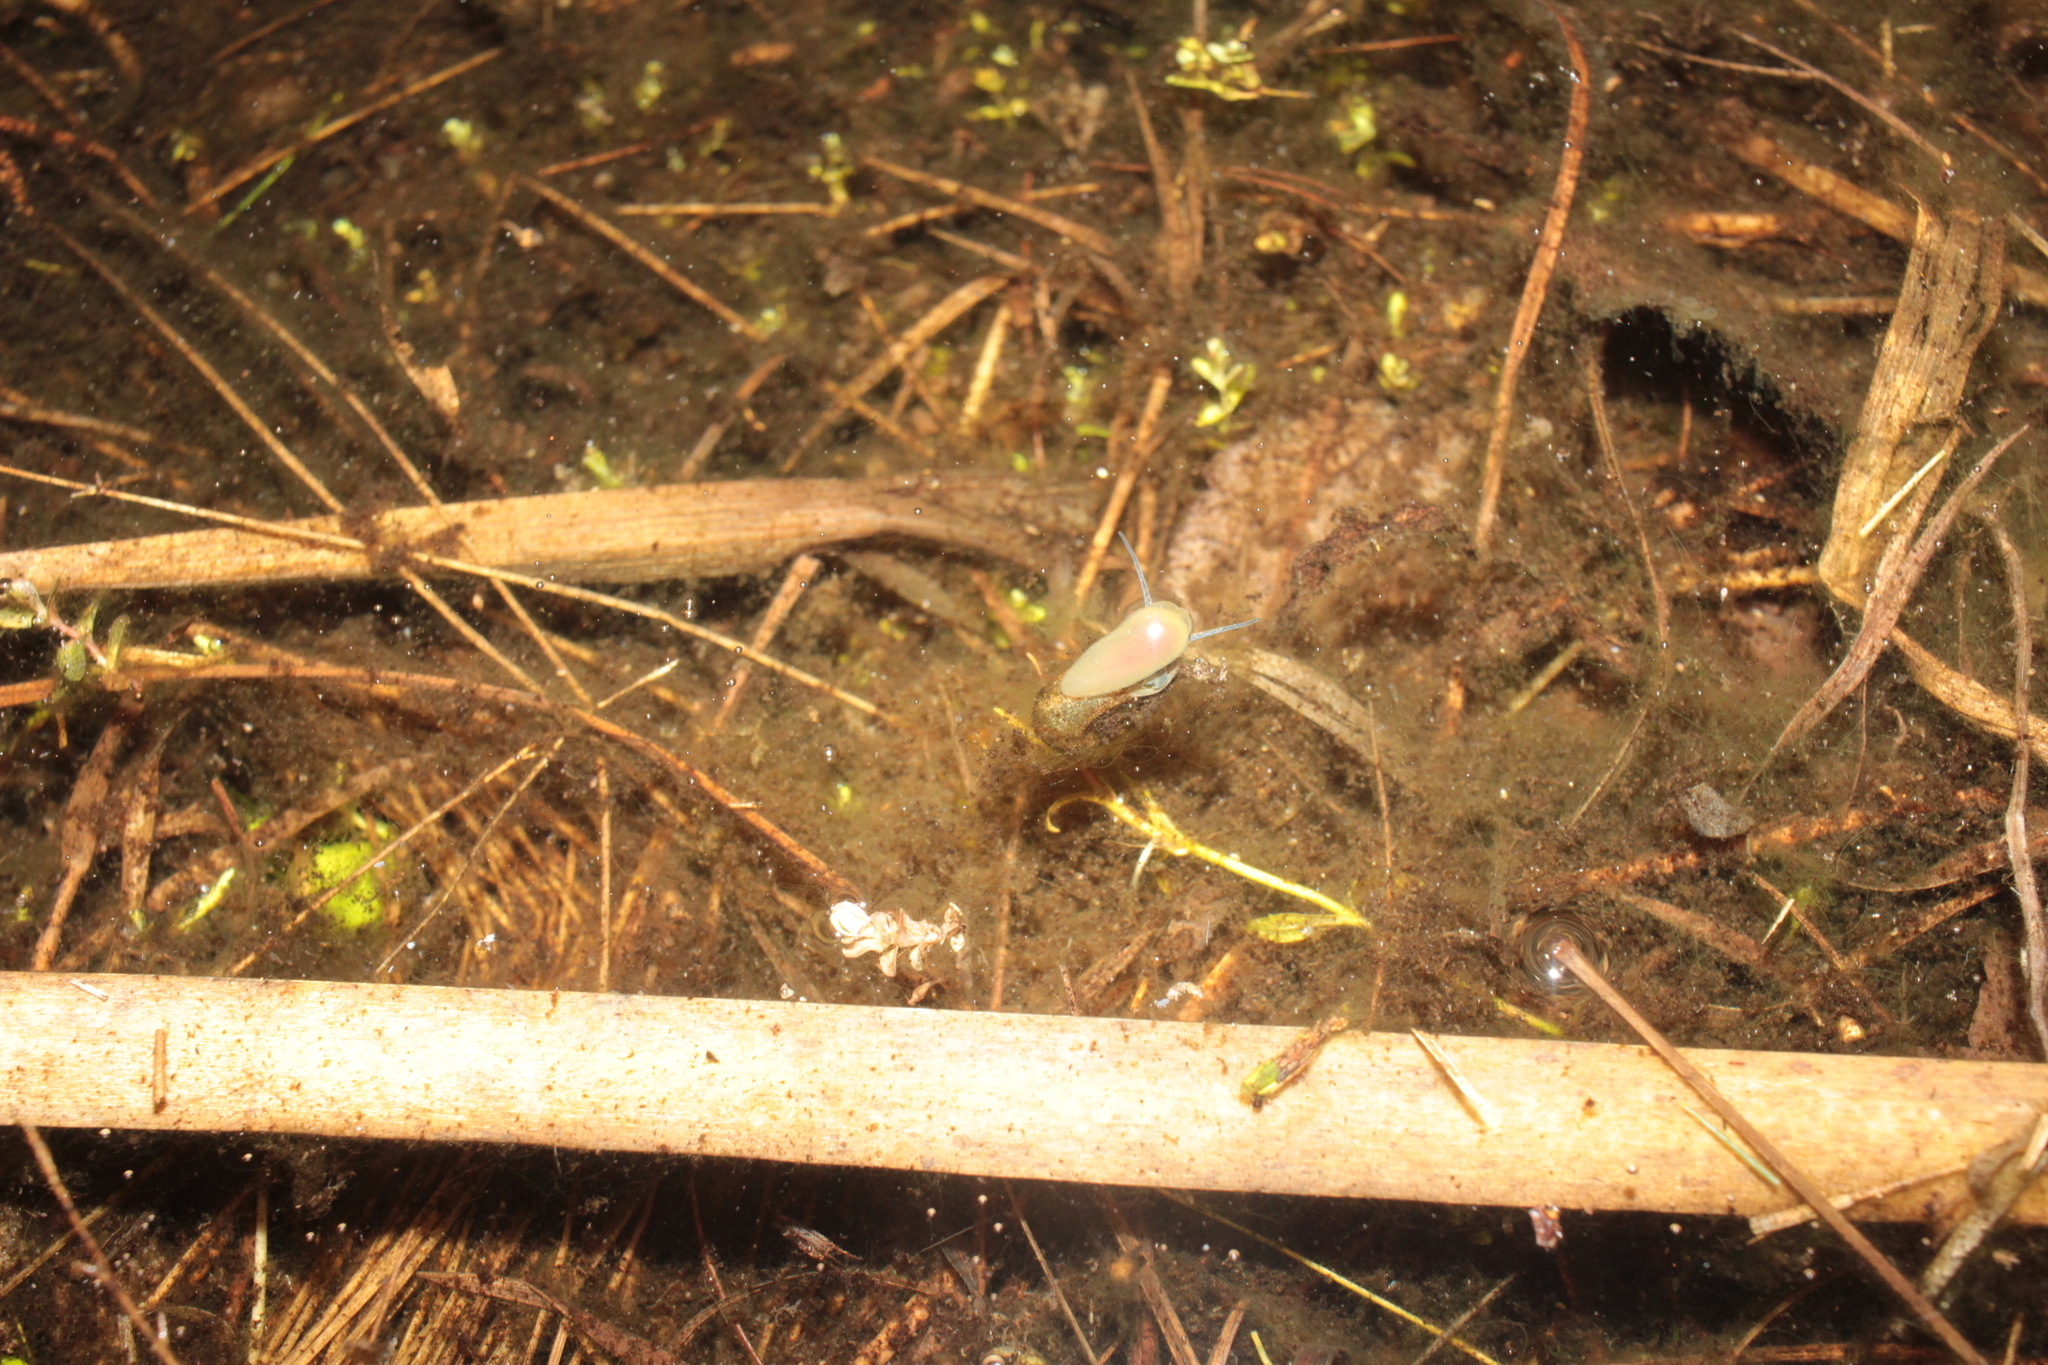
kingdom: Animalia
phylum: Mollusca
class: Gastropoda
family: Planorbidae
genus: Planorbella
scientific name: Planorbella trivolvis
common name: Marsh rams-horn
